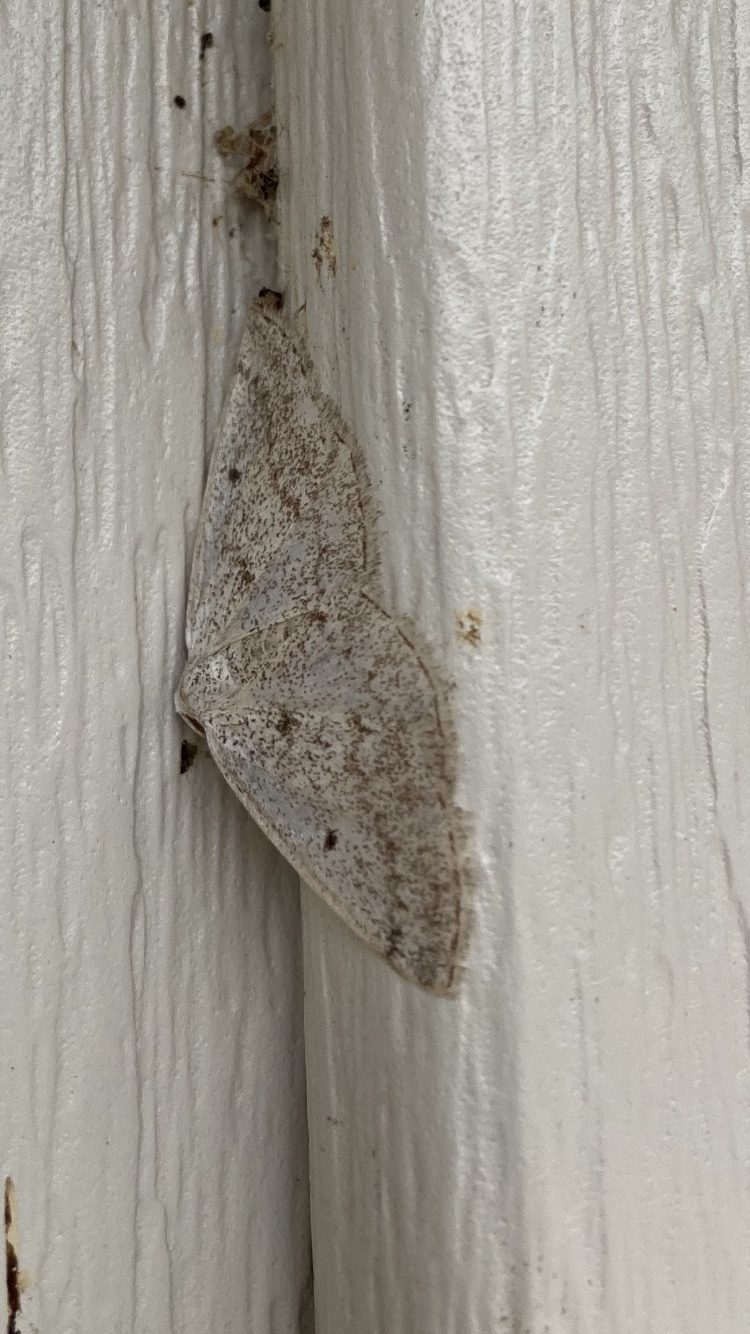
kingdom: Animalia
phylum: Arthropoda
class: Insecta
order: Lepidoptera
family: Geometridae
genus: Lomographa
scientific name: Lomographa glomeraria
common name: Gray spring moth
